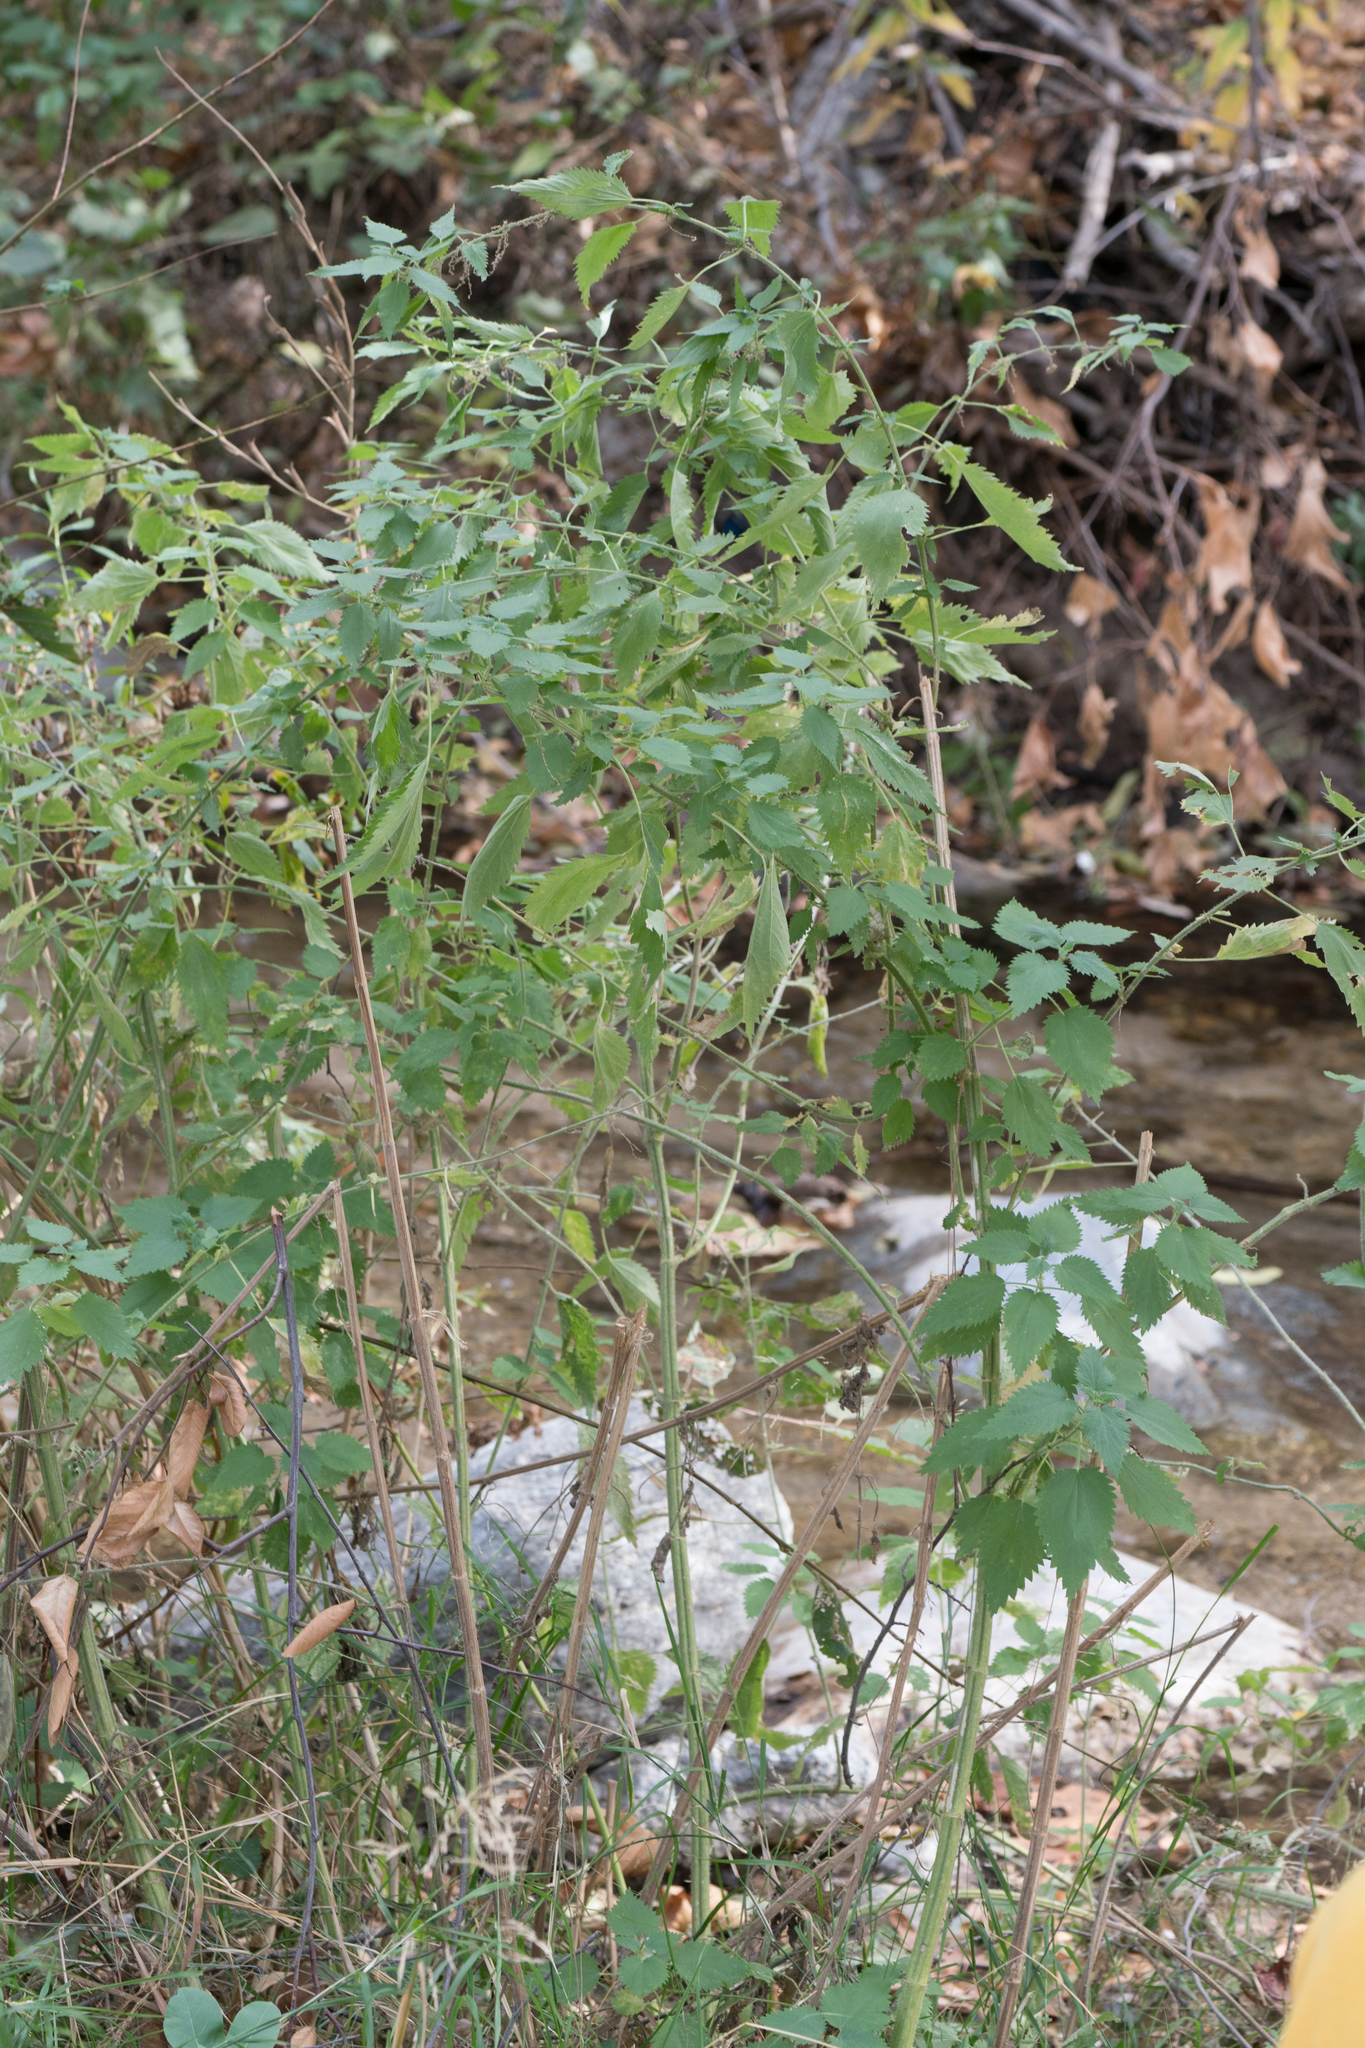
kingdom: Plantae
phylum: Tracheophyta
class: Magnoliopsida
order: Rosales
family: Urticaceae
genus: Urtica
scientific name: Urtica dioica
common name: Common nettle
